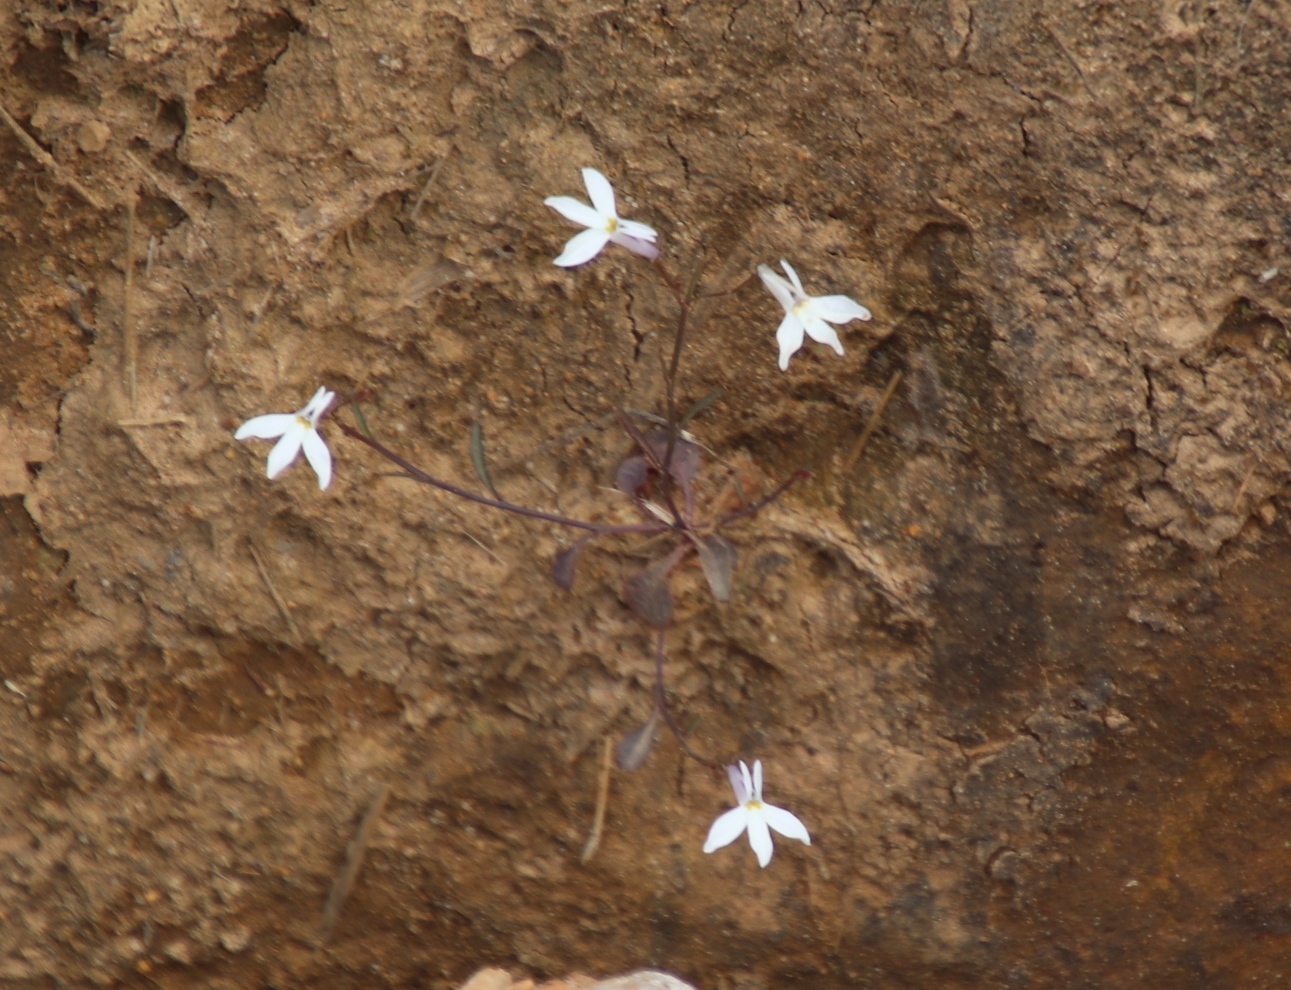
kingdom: Plantae
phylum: Tracheophyta
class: Magnoliopsida
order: Asterales
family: Campanulaceae
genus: Lobelia
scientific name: Lobelia pubescens
